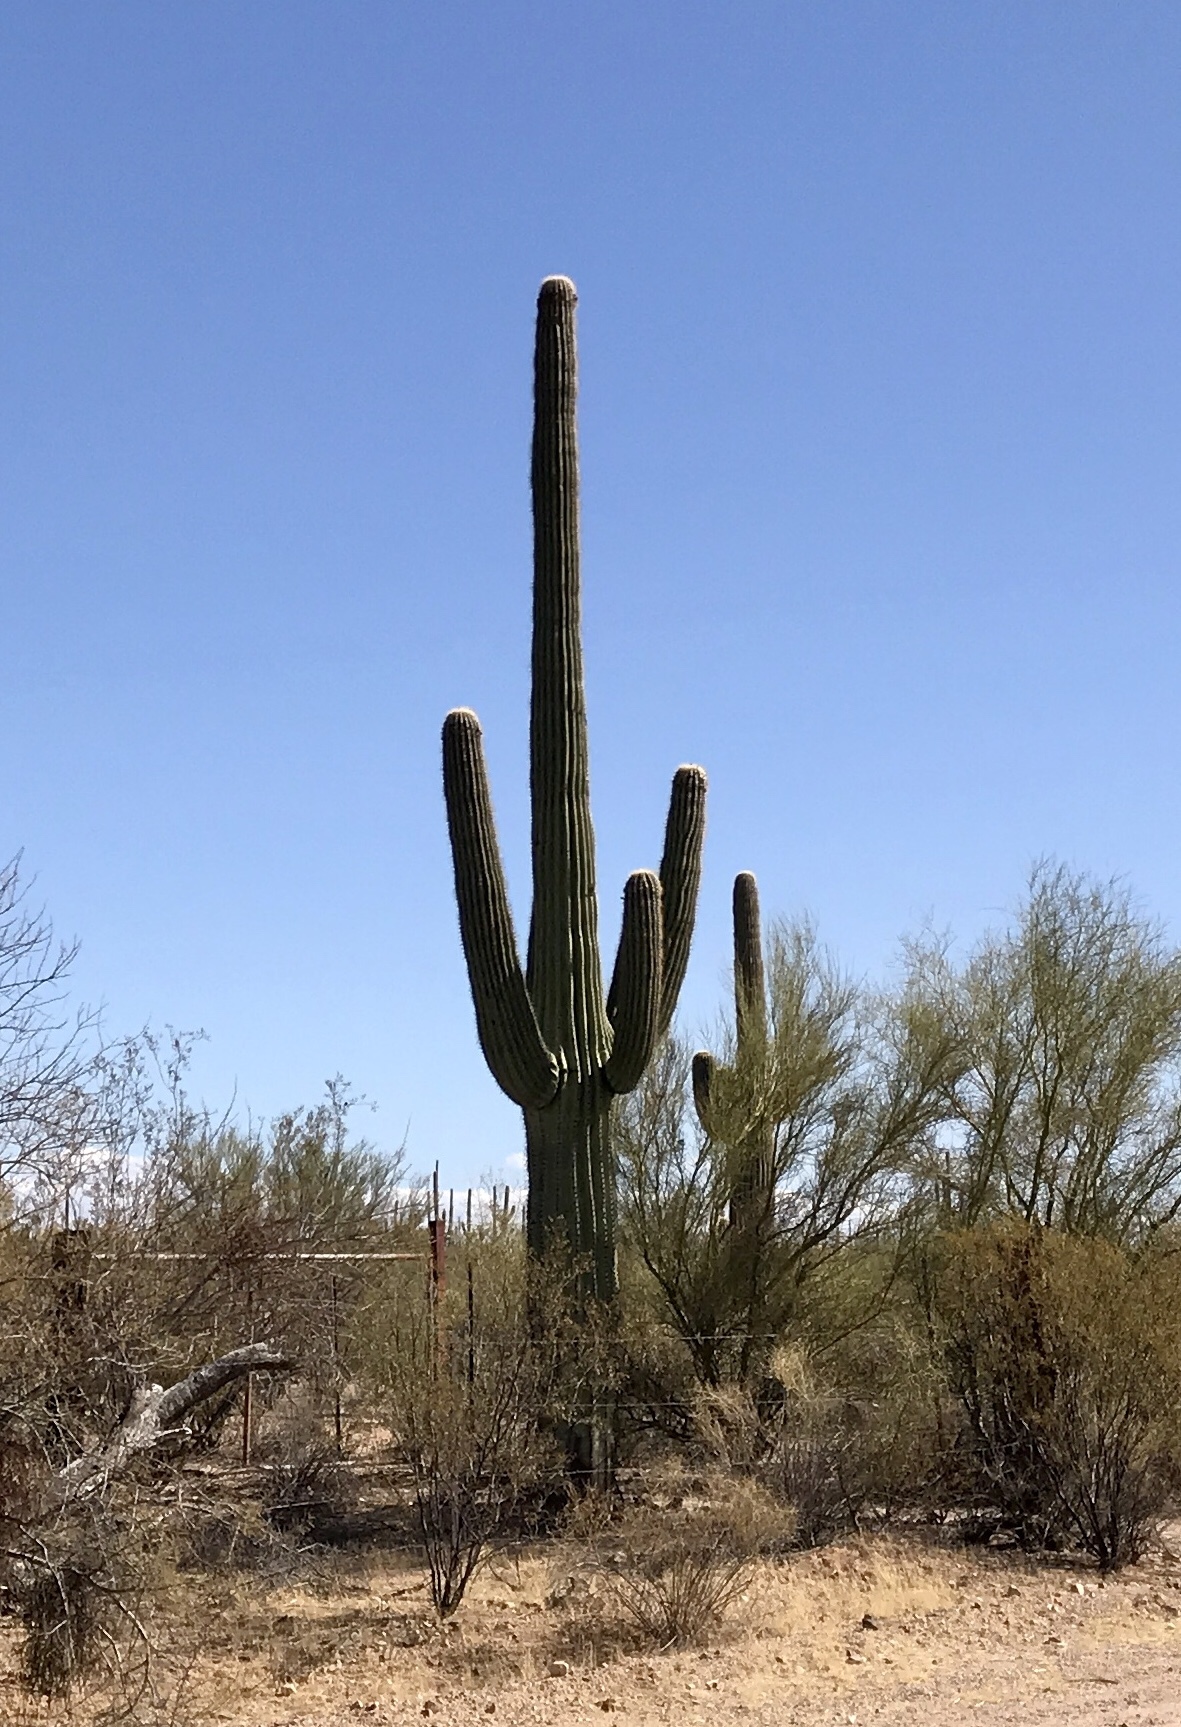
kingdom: Plantae
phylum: Tracheophyta
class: Magnoliopsida
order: Caryophyllales
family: Cactaceae
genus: Carnegiea
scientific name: Carnegiea gigantea
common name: Saguaro
